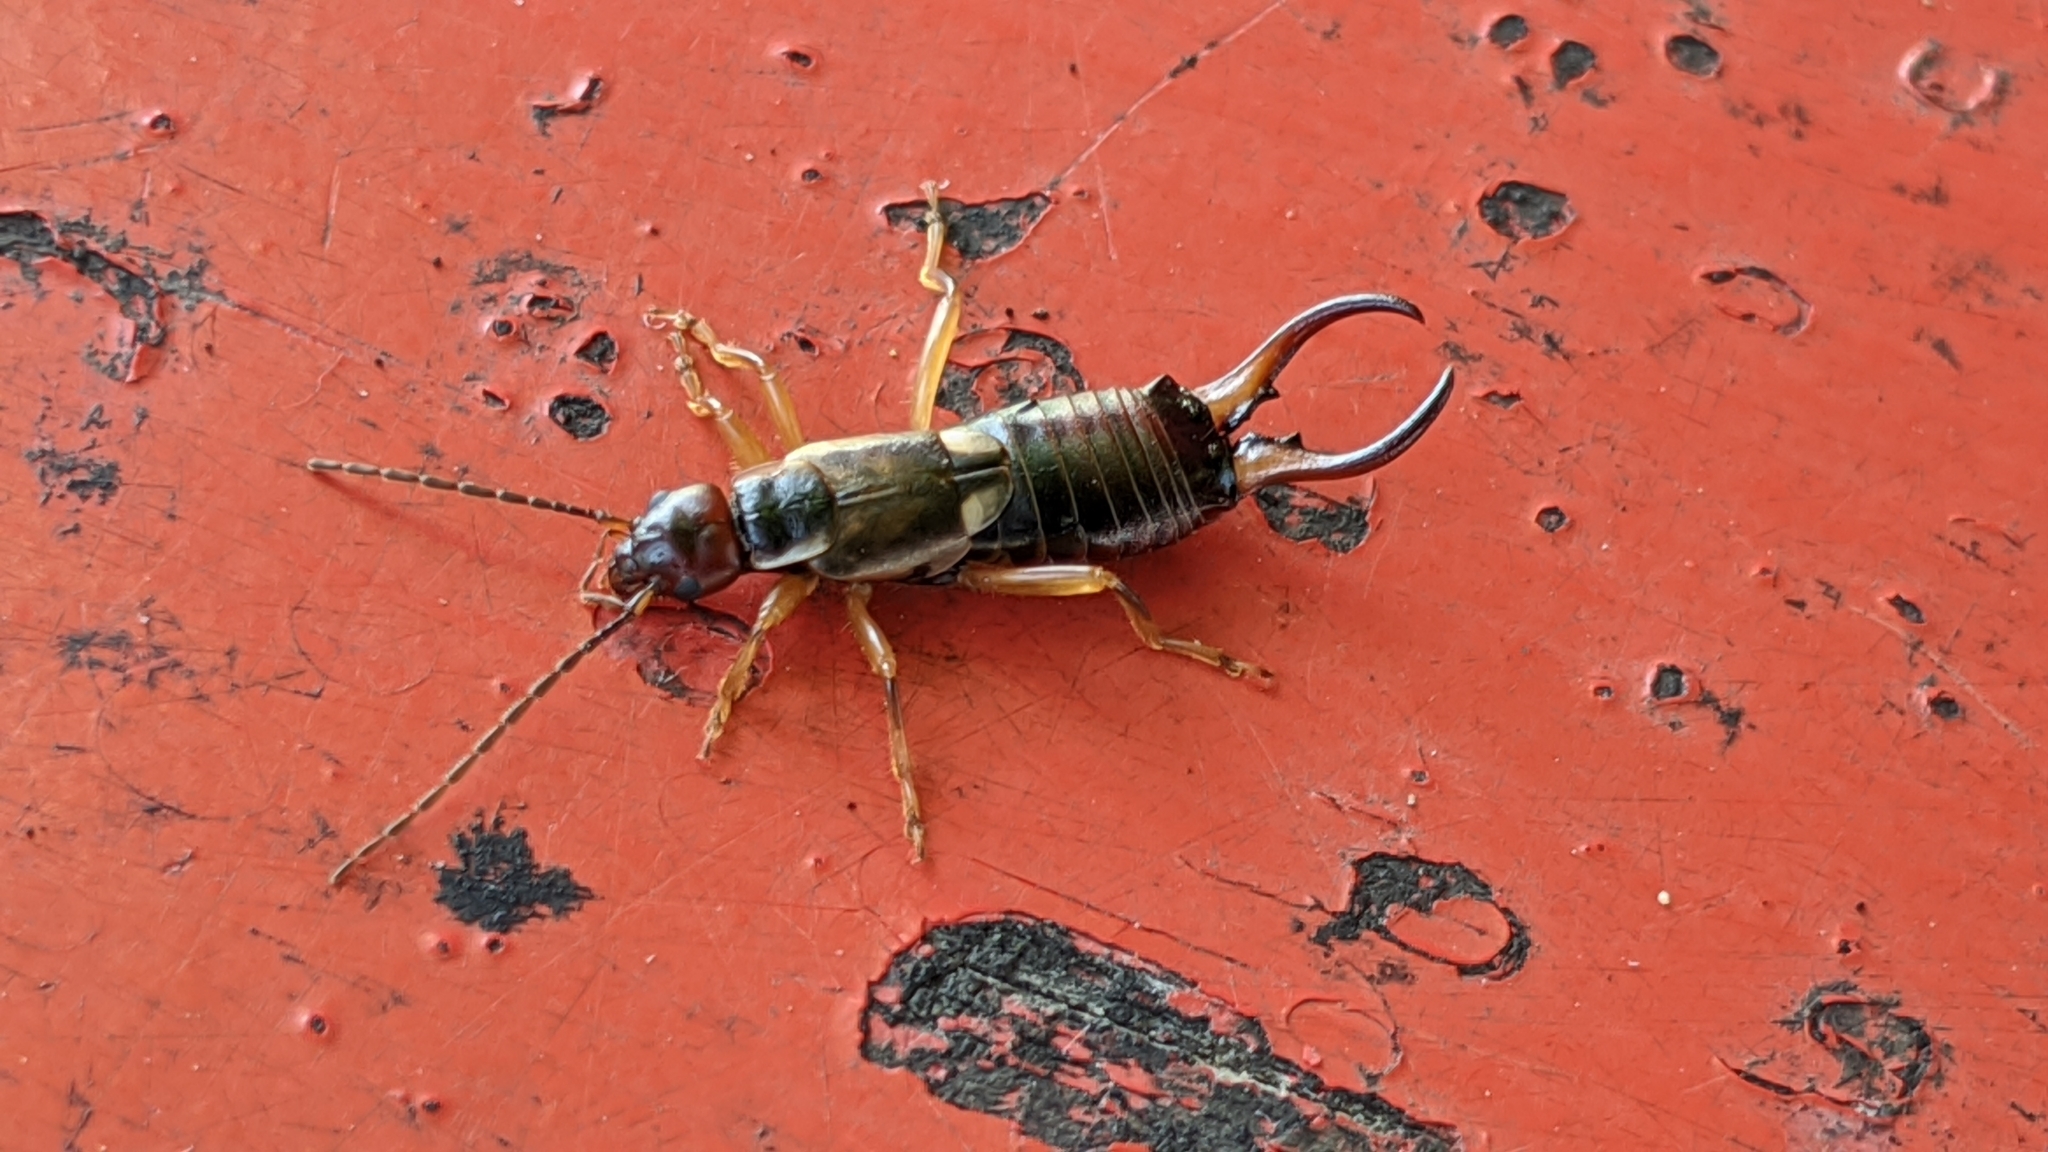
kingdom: Animalia
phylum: Arthropoda
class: Insecta
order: Dermaptera
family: Forficulidae
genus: Forficula
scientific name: Forficula
